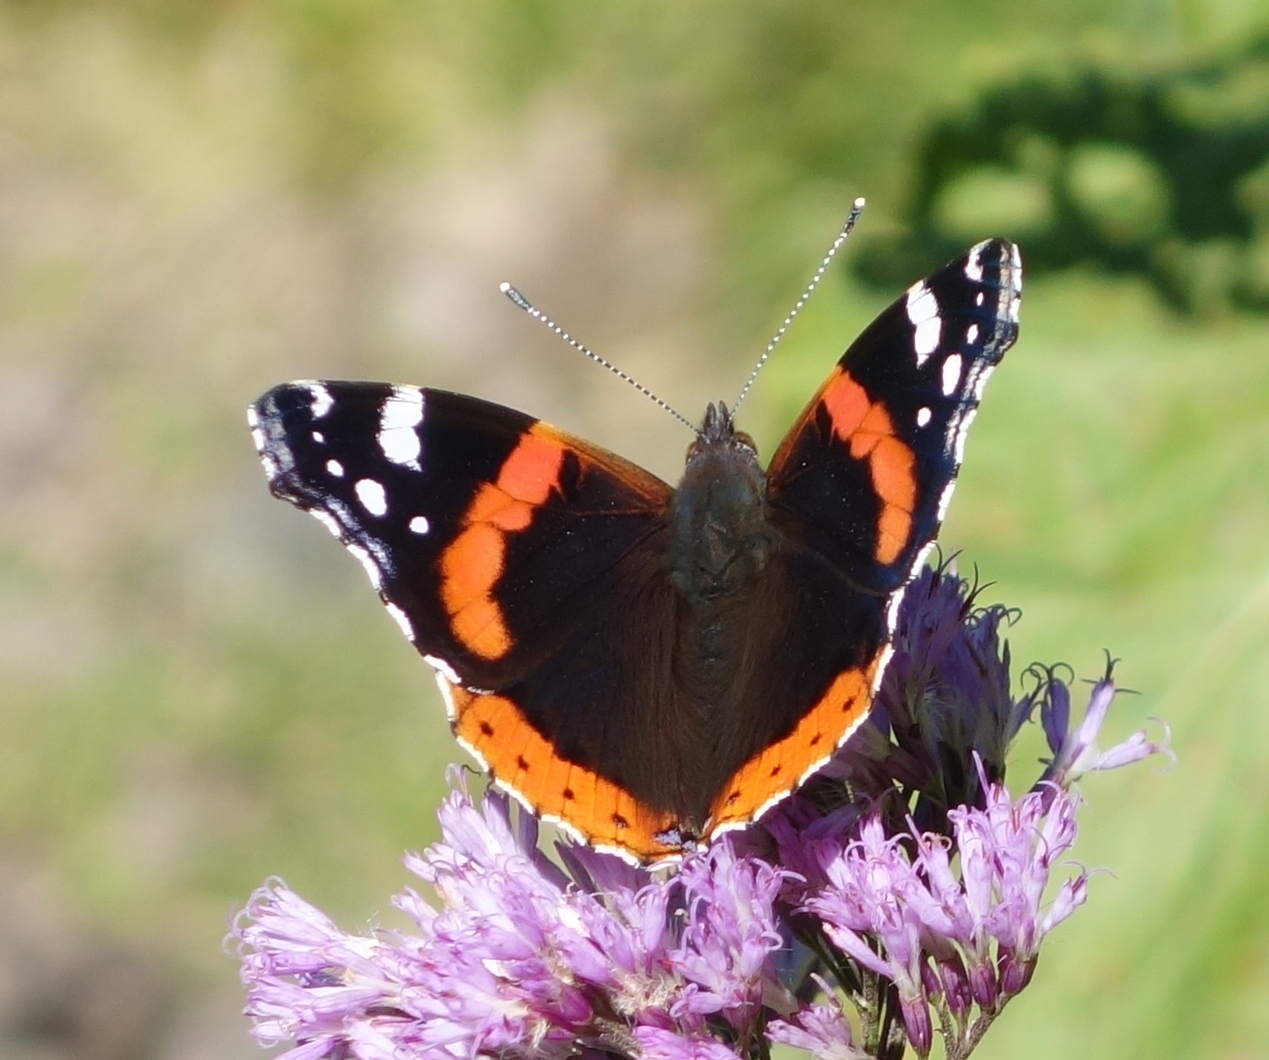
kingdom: Animalia
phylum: Arthropoda
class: Insecta
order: Lepidoptera
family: Nymphalidae
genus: Vanessa
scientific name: Vanessa atalanta
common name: Red admiral
